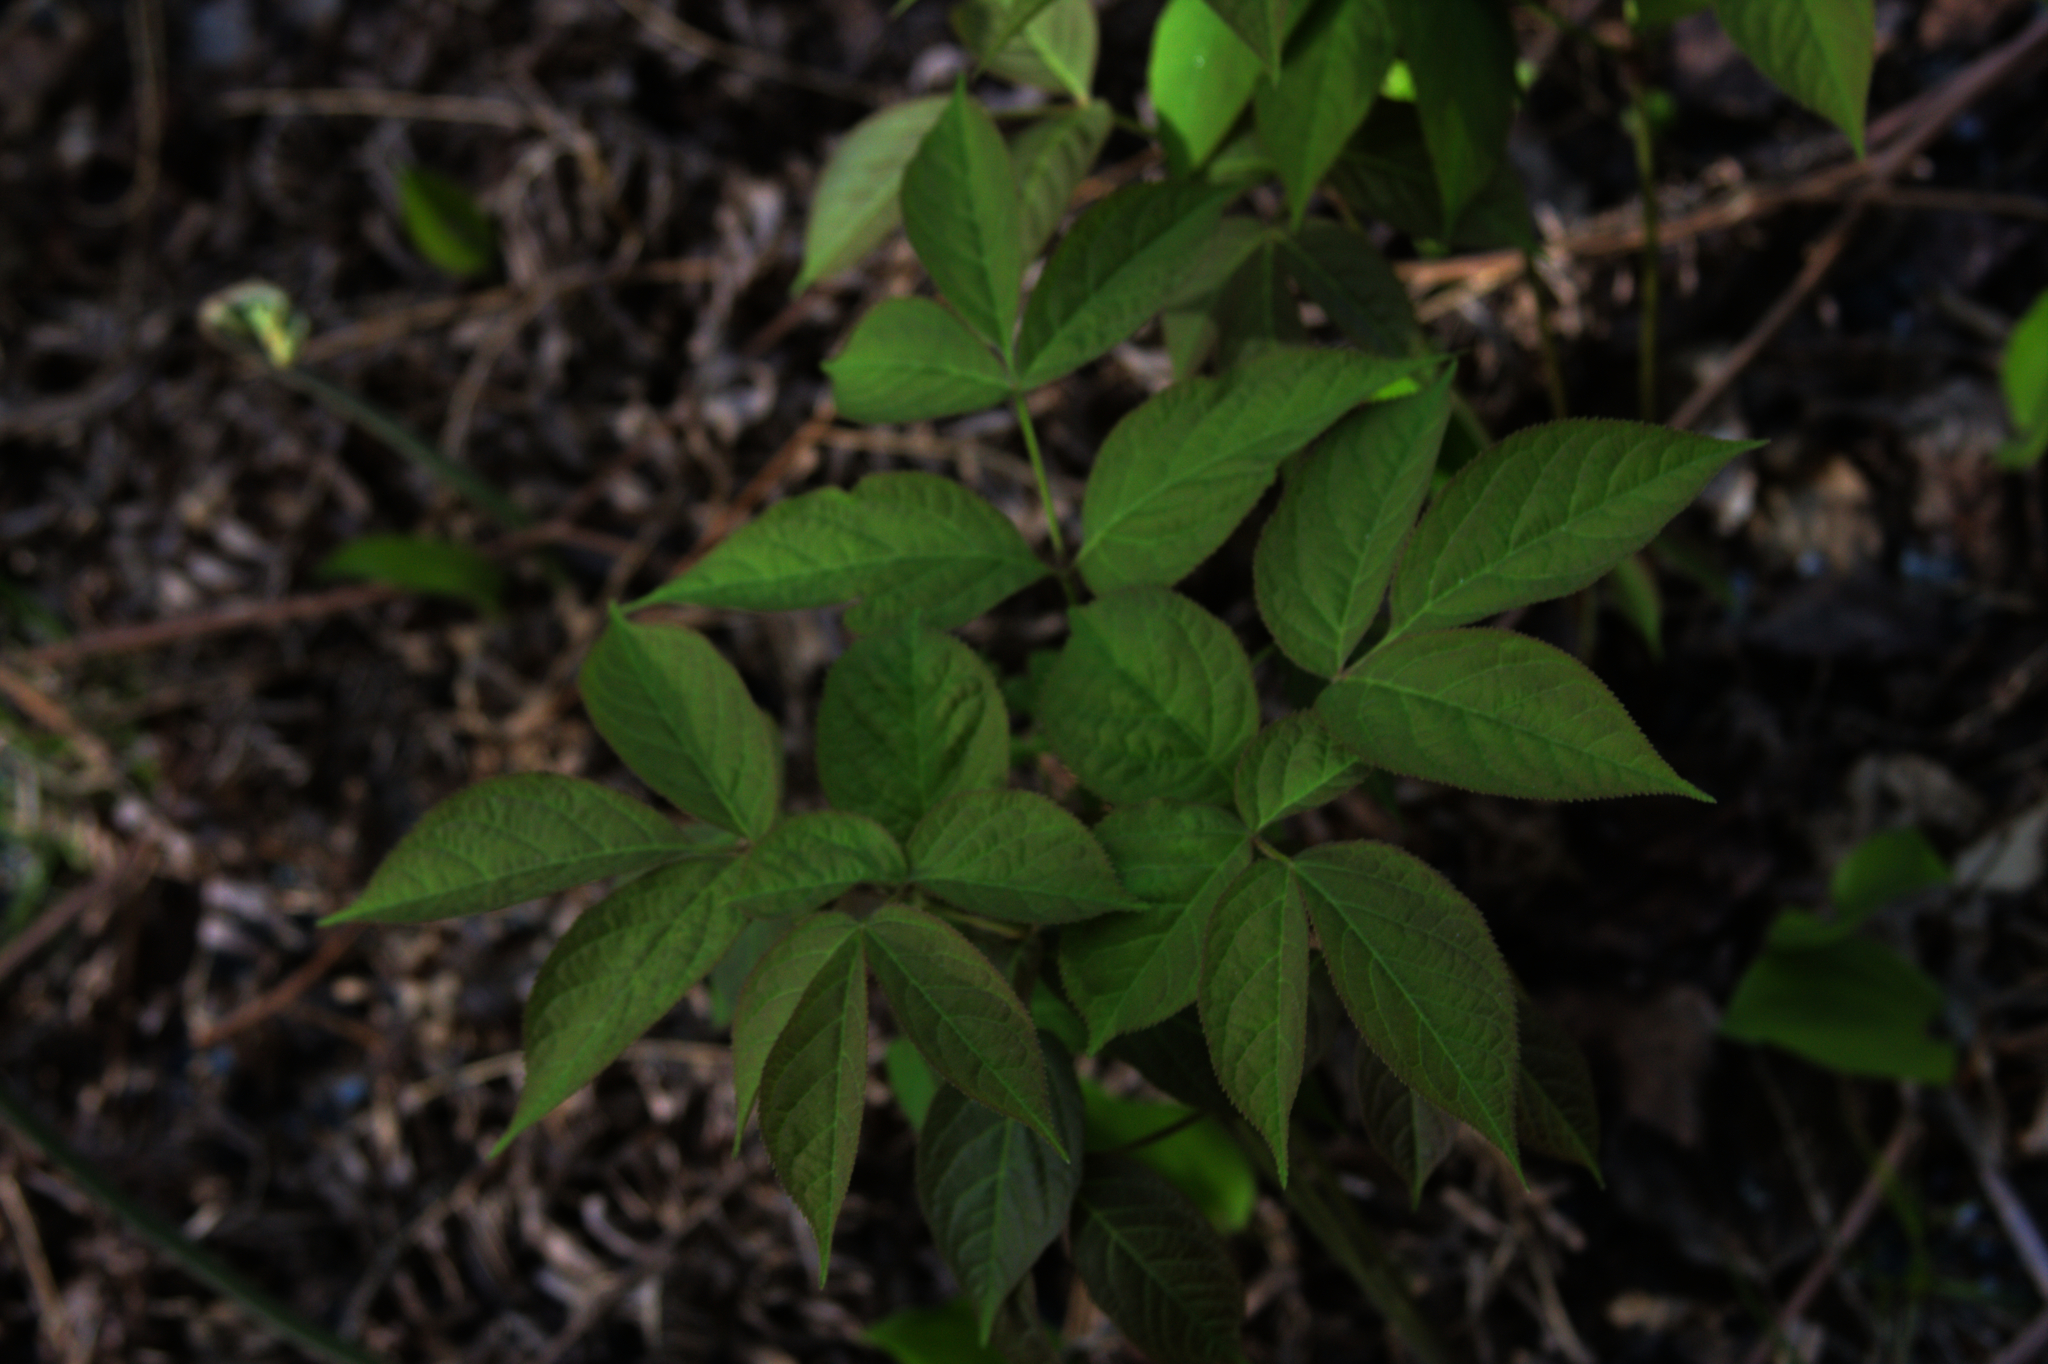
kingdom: Plantae
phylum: Tracheophyta
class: Magnoliopsida
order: Apiales
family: Araliaceae
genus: Aralia
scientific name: Aralia nudicaulis
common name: Wild sarsaparilla
